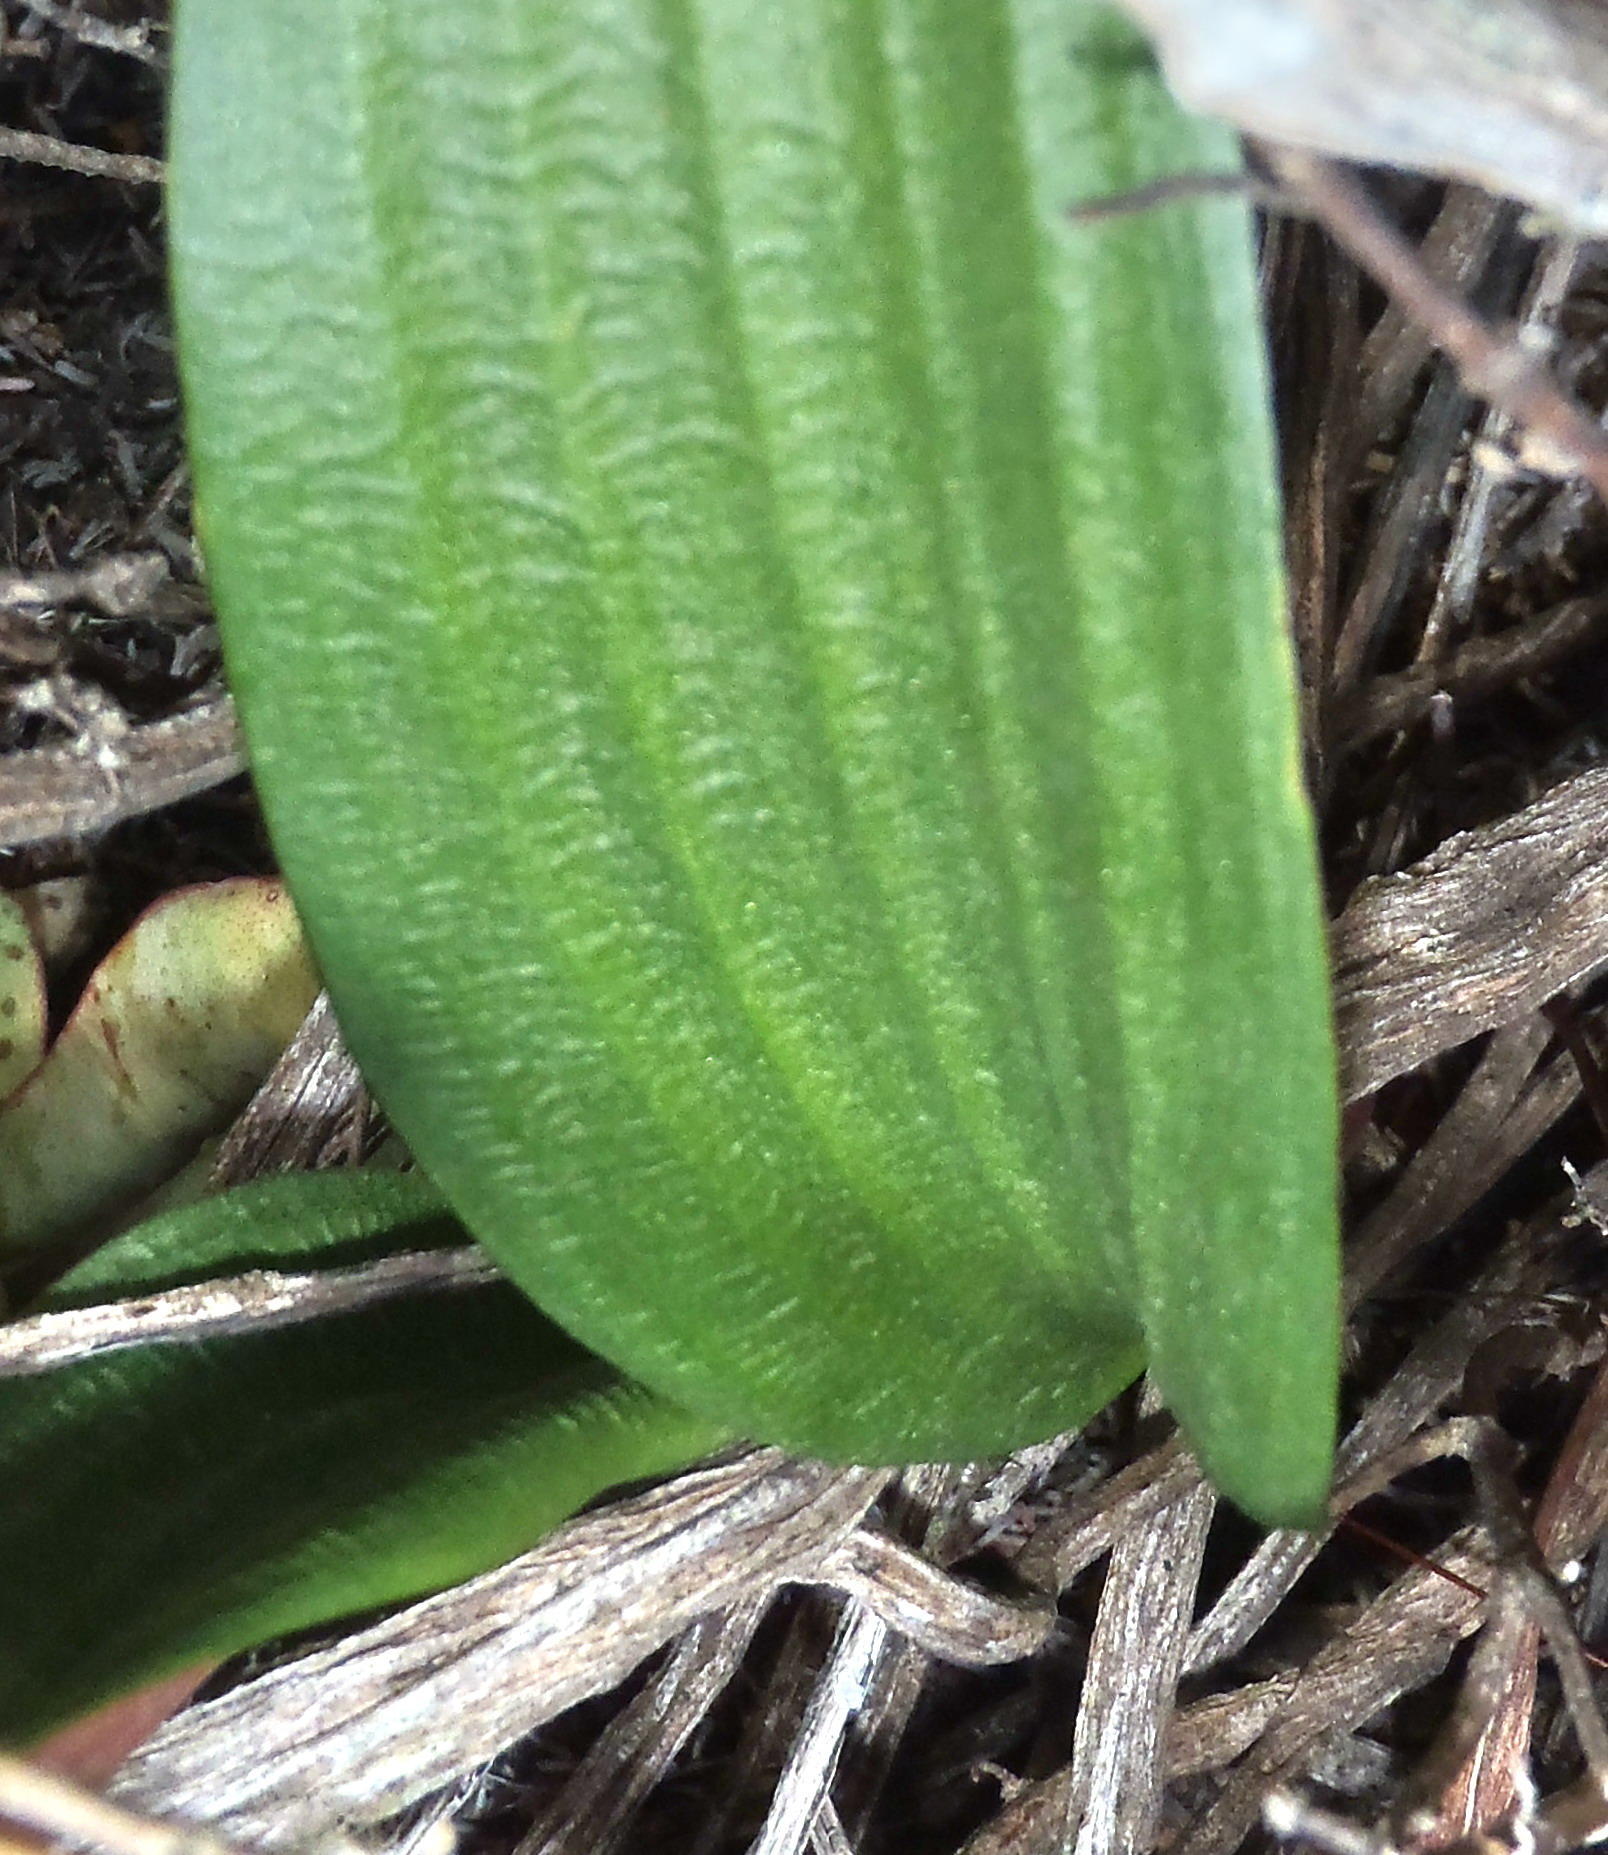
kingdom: Plantae
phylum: Tracheophyta
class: Liliopsida
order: Asparagales
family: Asparagaceae
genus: Eriospermum
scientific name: Eriospermum exile
